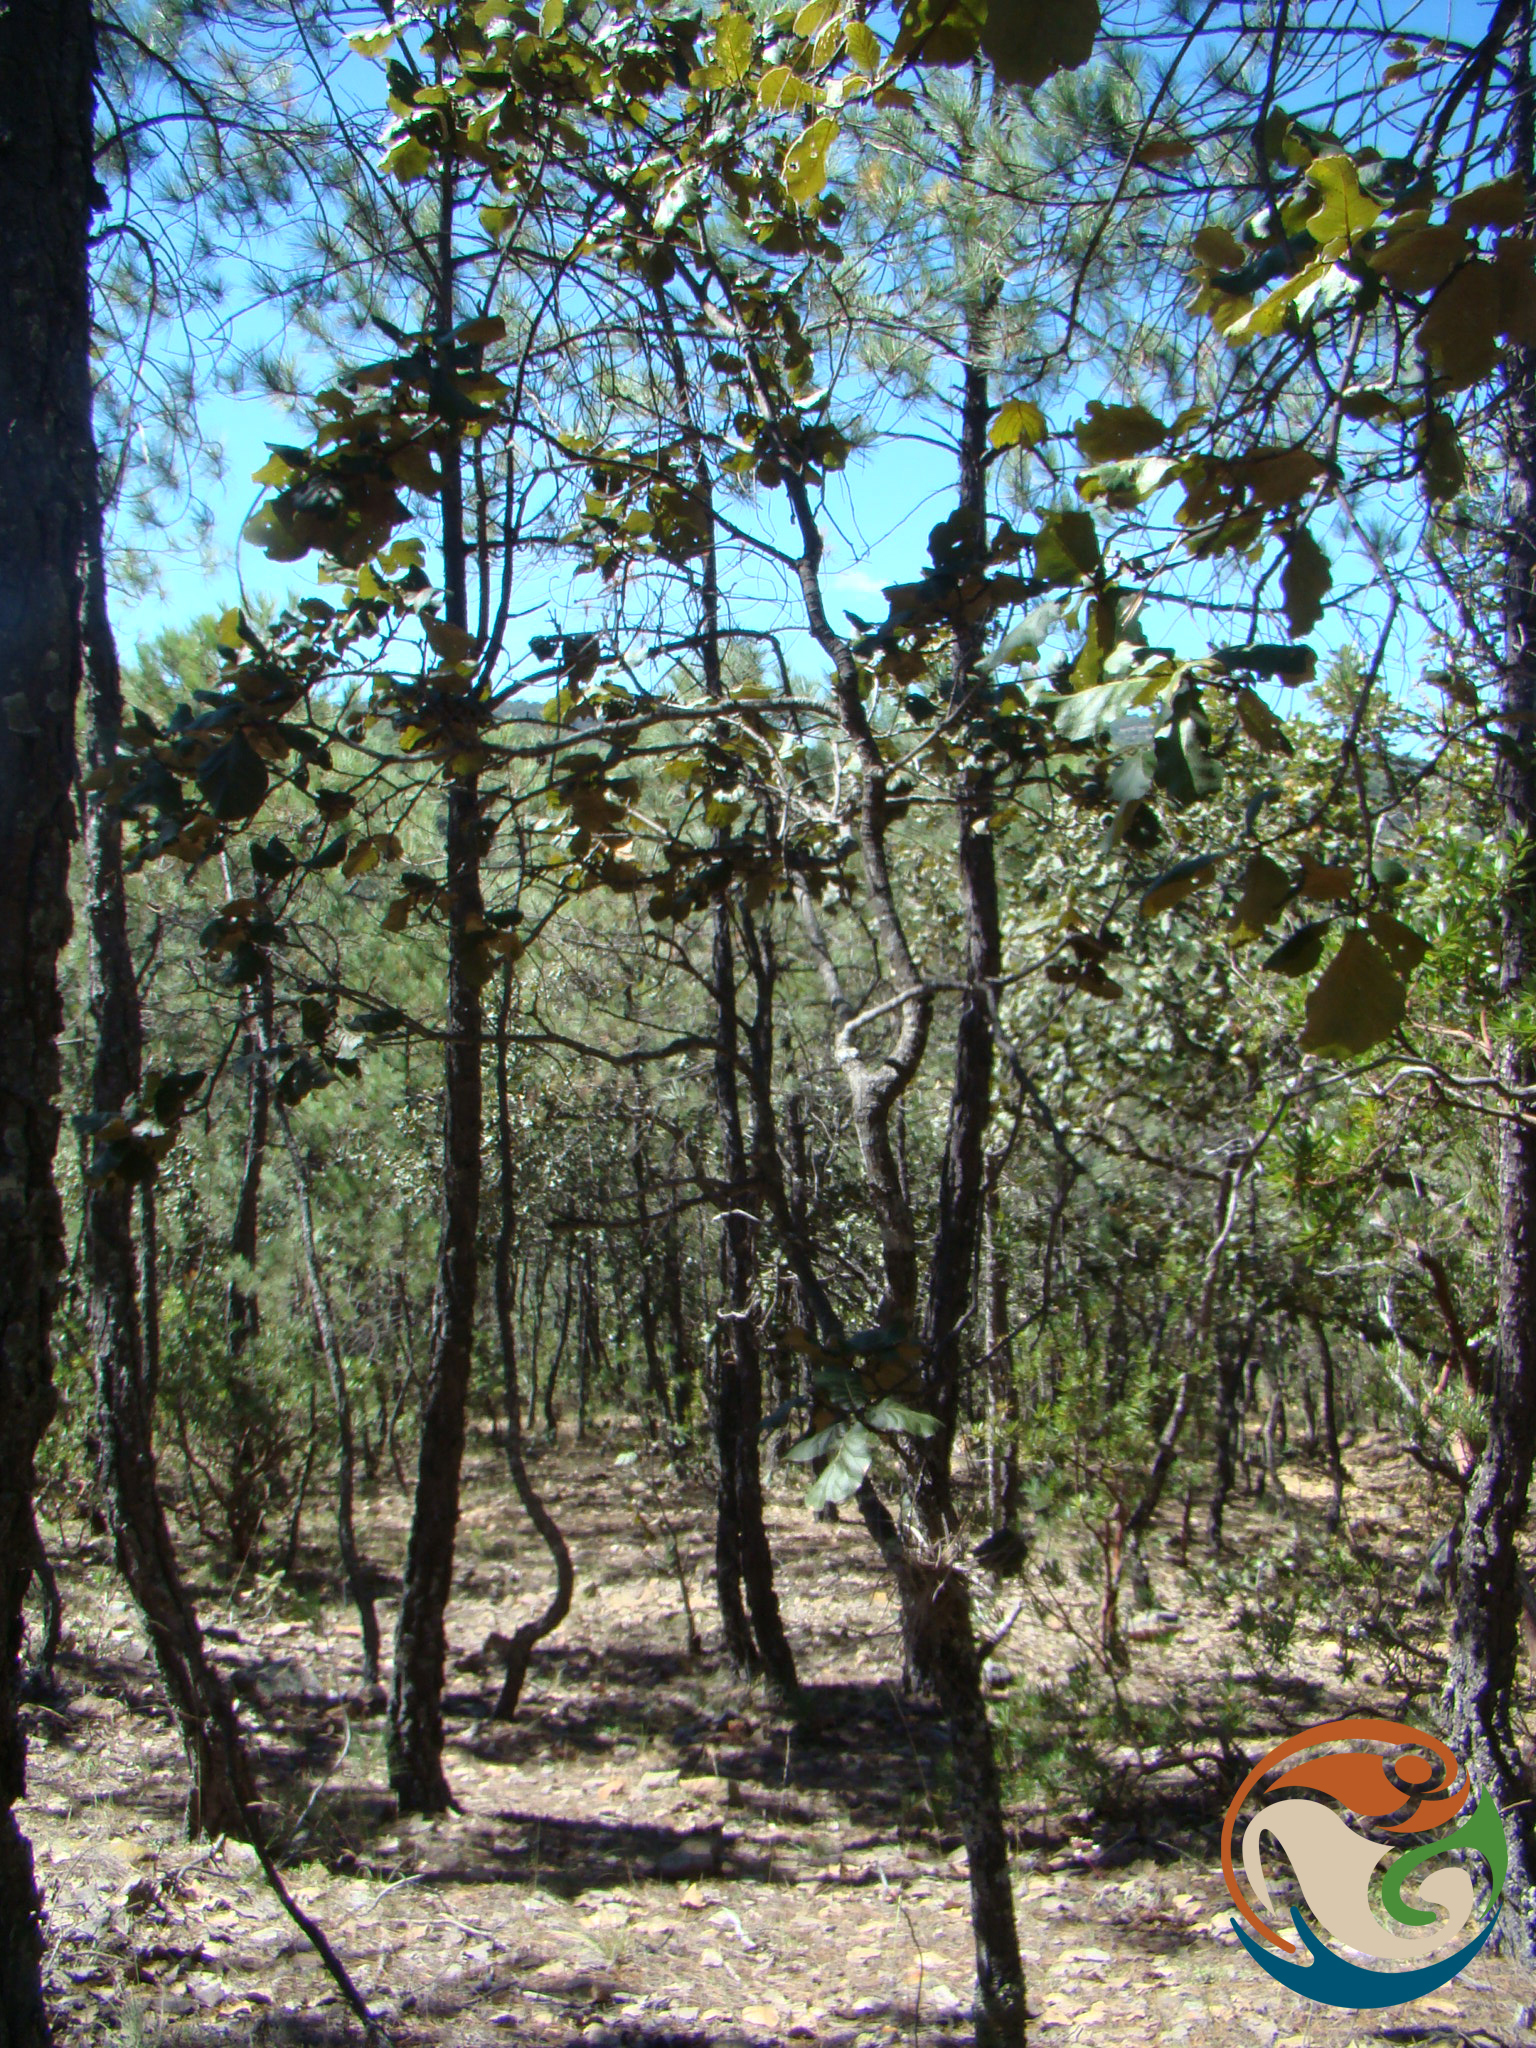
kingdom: Plantae
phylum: Tracheophyta
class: Magnoliopsida
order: Fagales
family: Fagaceae
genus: Quercus
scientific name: Quercus rugosa
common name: Netleaf oak
